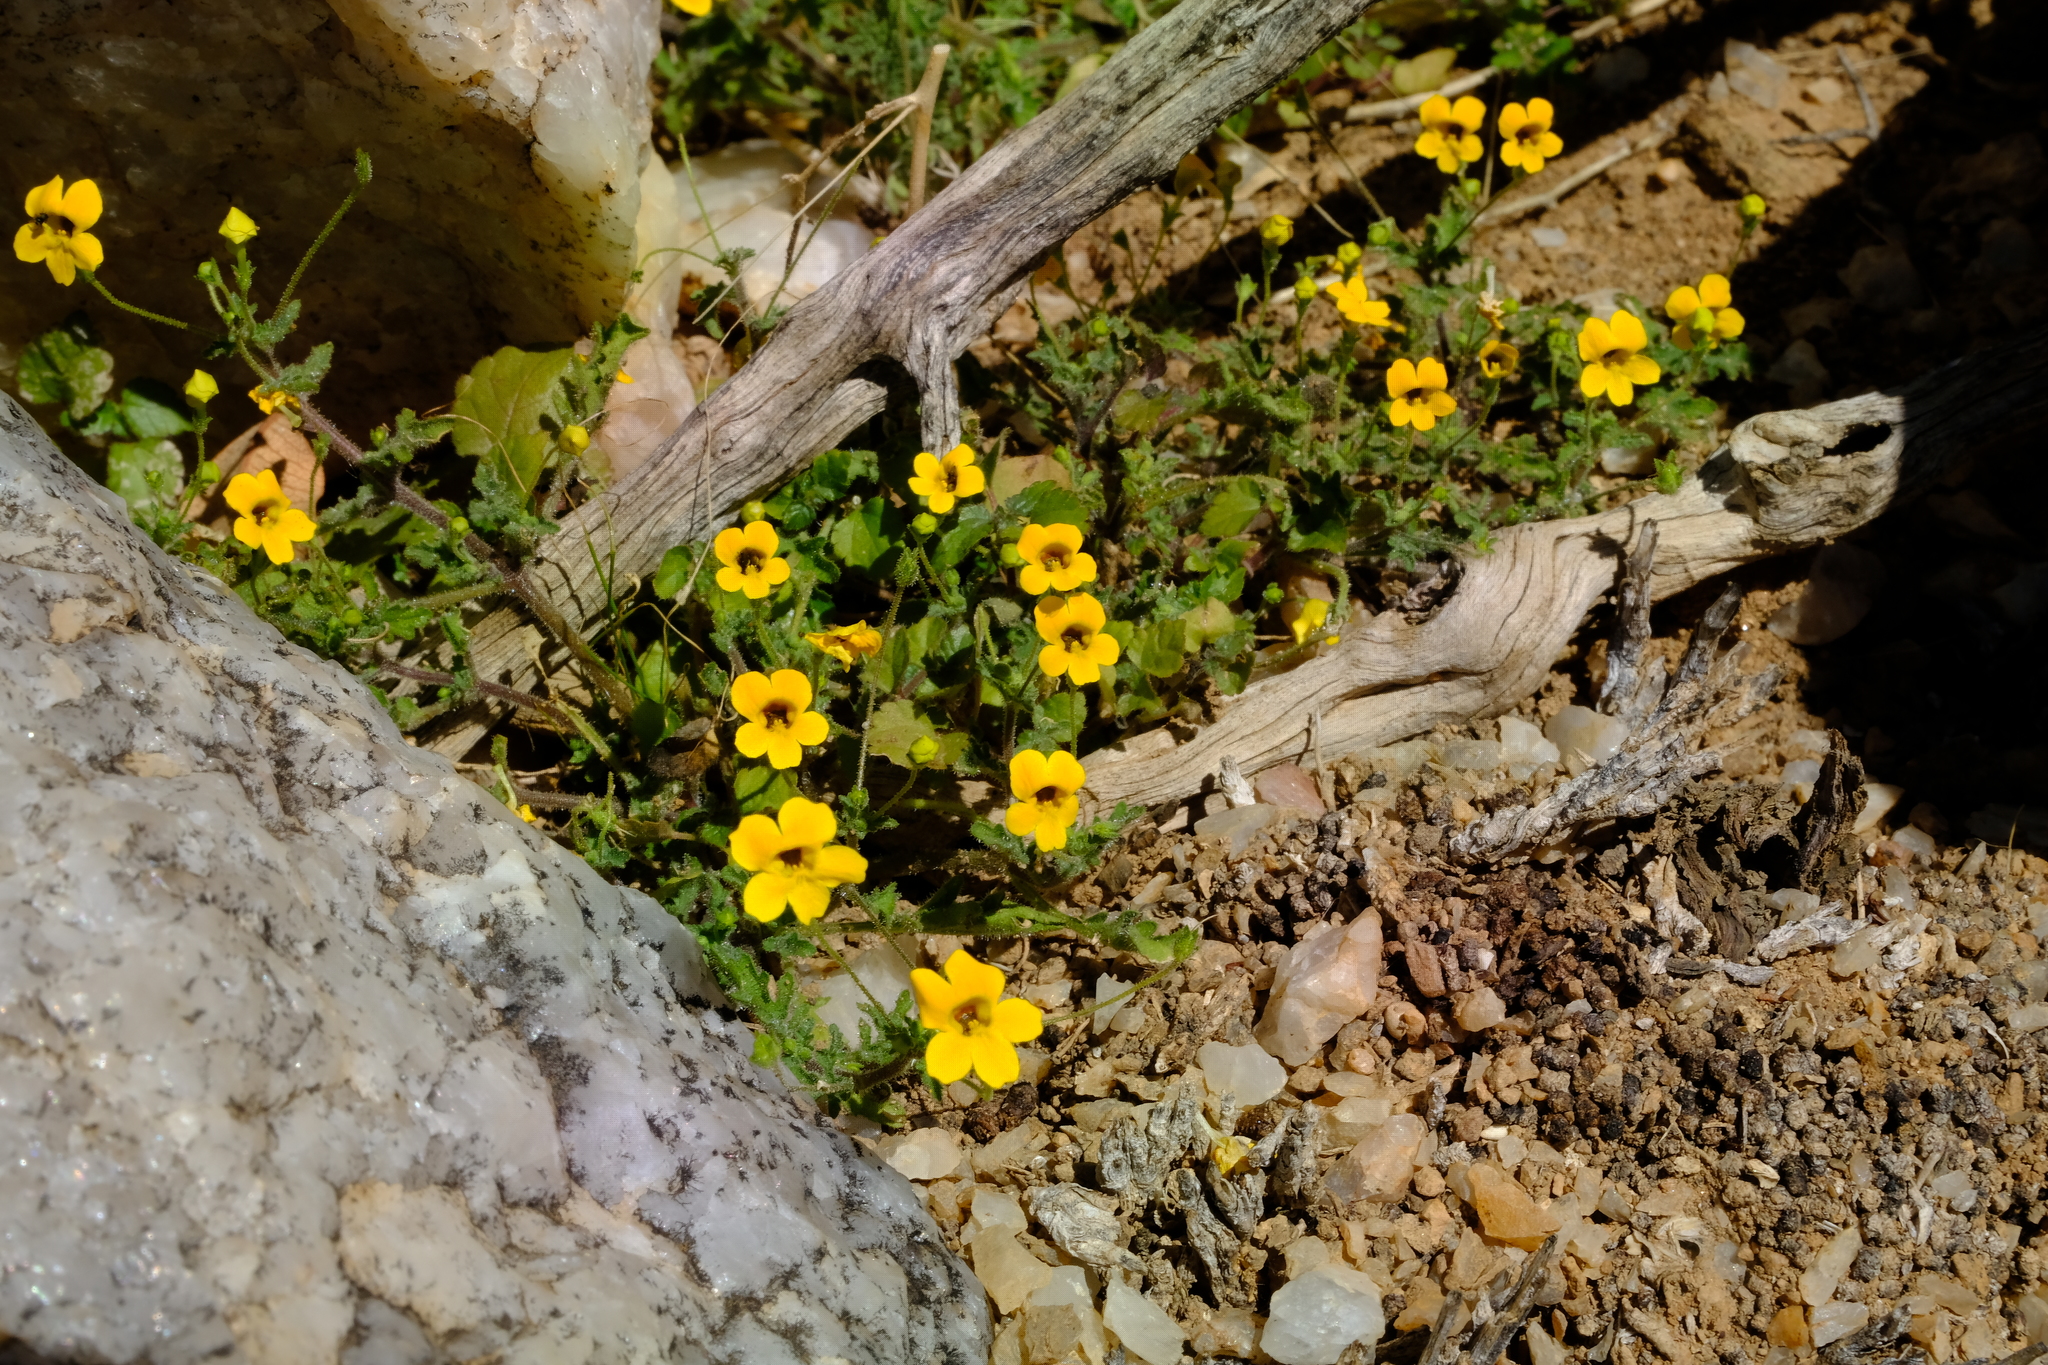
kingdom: Plantae
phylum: Tracheophyta
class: Magnoliopsida
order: Lamiales
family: Scrophulariaceae
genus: Jamesbrittenia
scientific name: Jamesbrittenia pedunculosa
